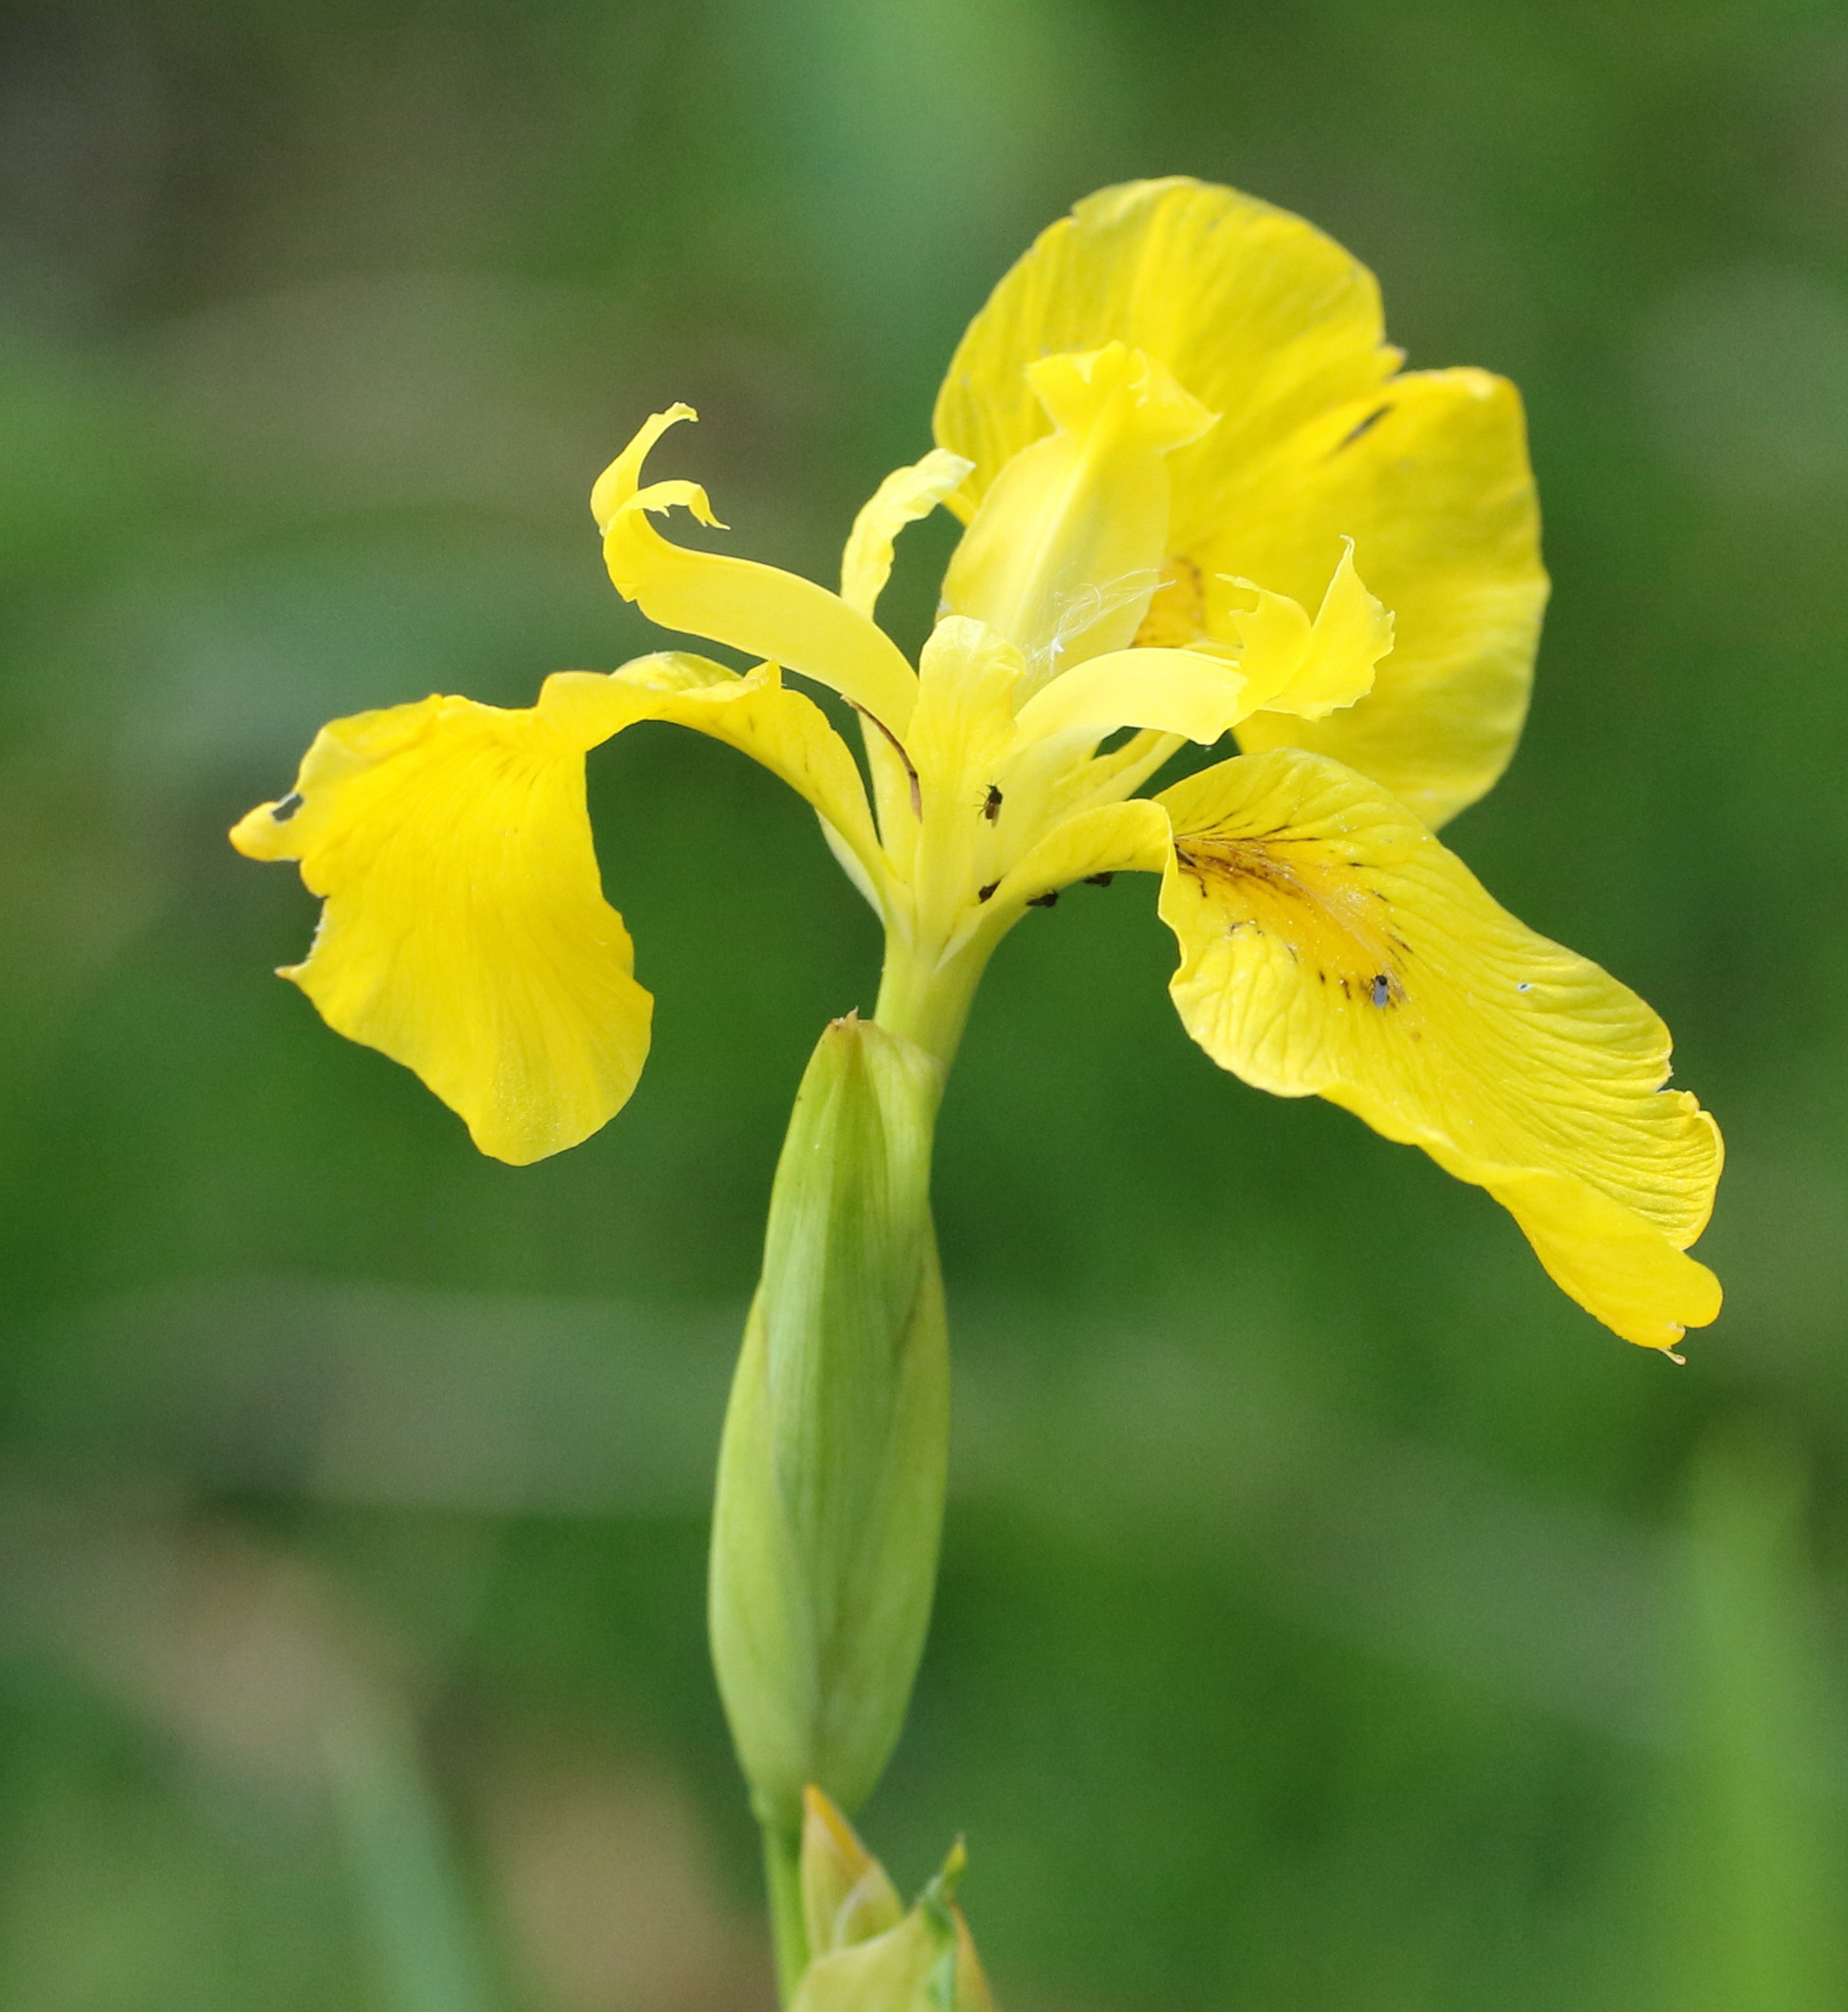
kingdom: Plantae
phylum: Tracheophyta
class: Liliopsida
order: Asparagales
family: Iridaceae
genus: Iris
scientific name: Iris pseudacorus
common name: Yellow flag
